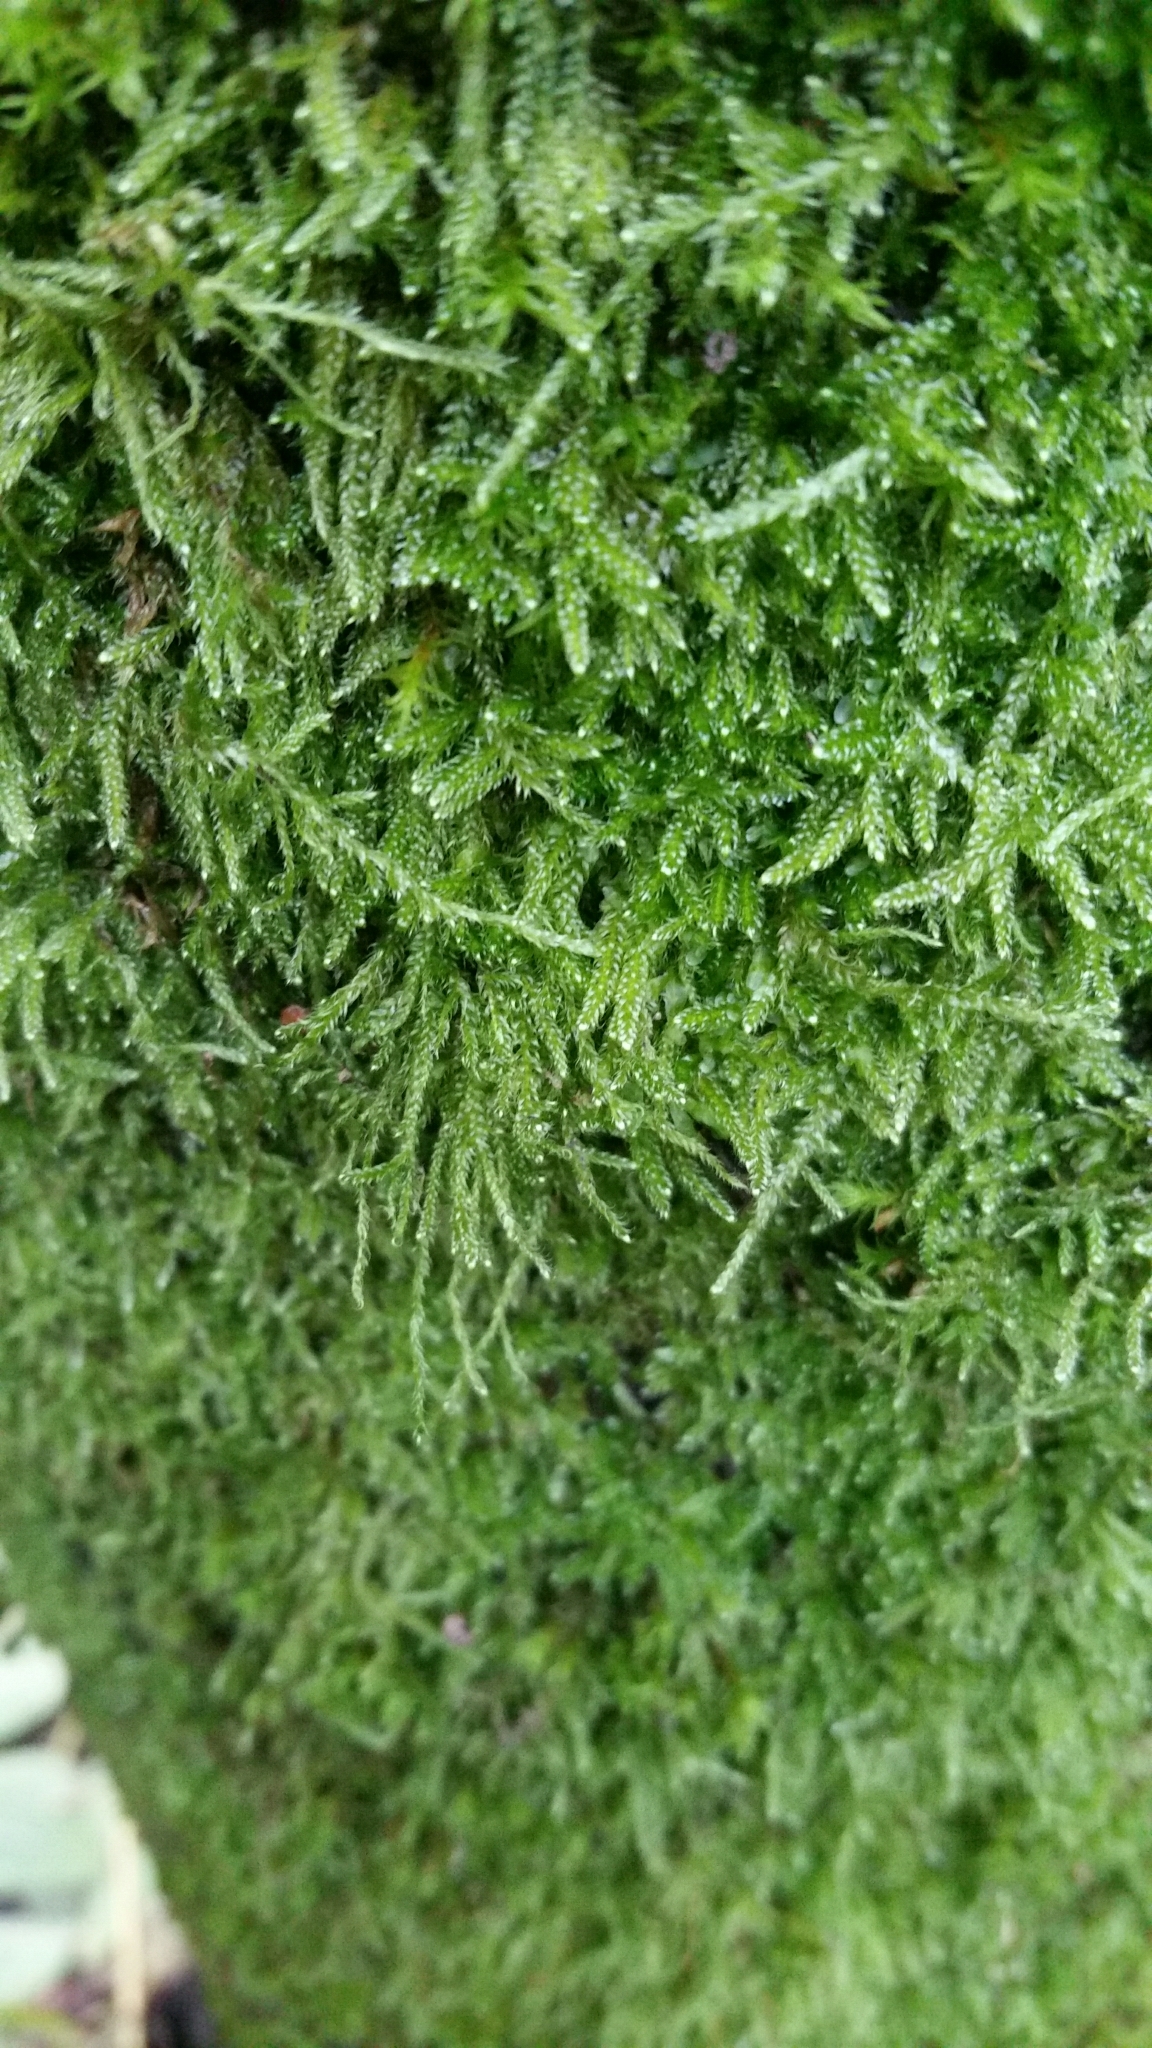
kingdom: Plantae
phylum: Bryophyta
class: Bryopsida
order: Hypnales
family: Hypnaceae
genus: Hypnum
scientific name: Hypnum cupressiforme
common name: Cypress-leaved plait-moss
